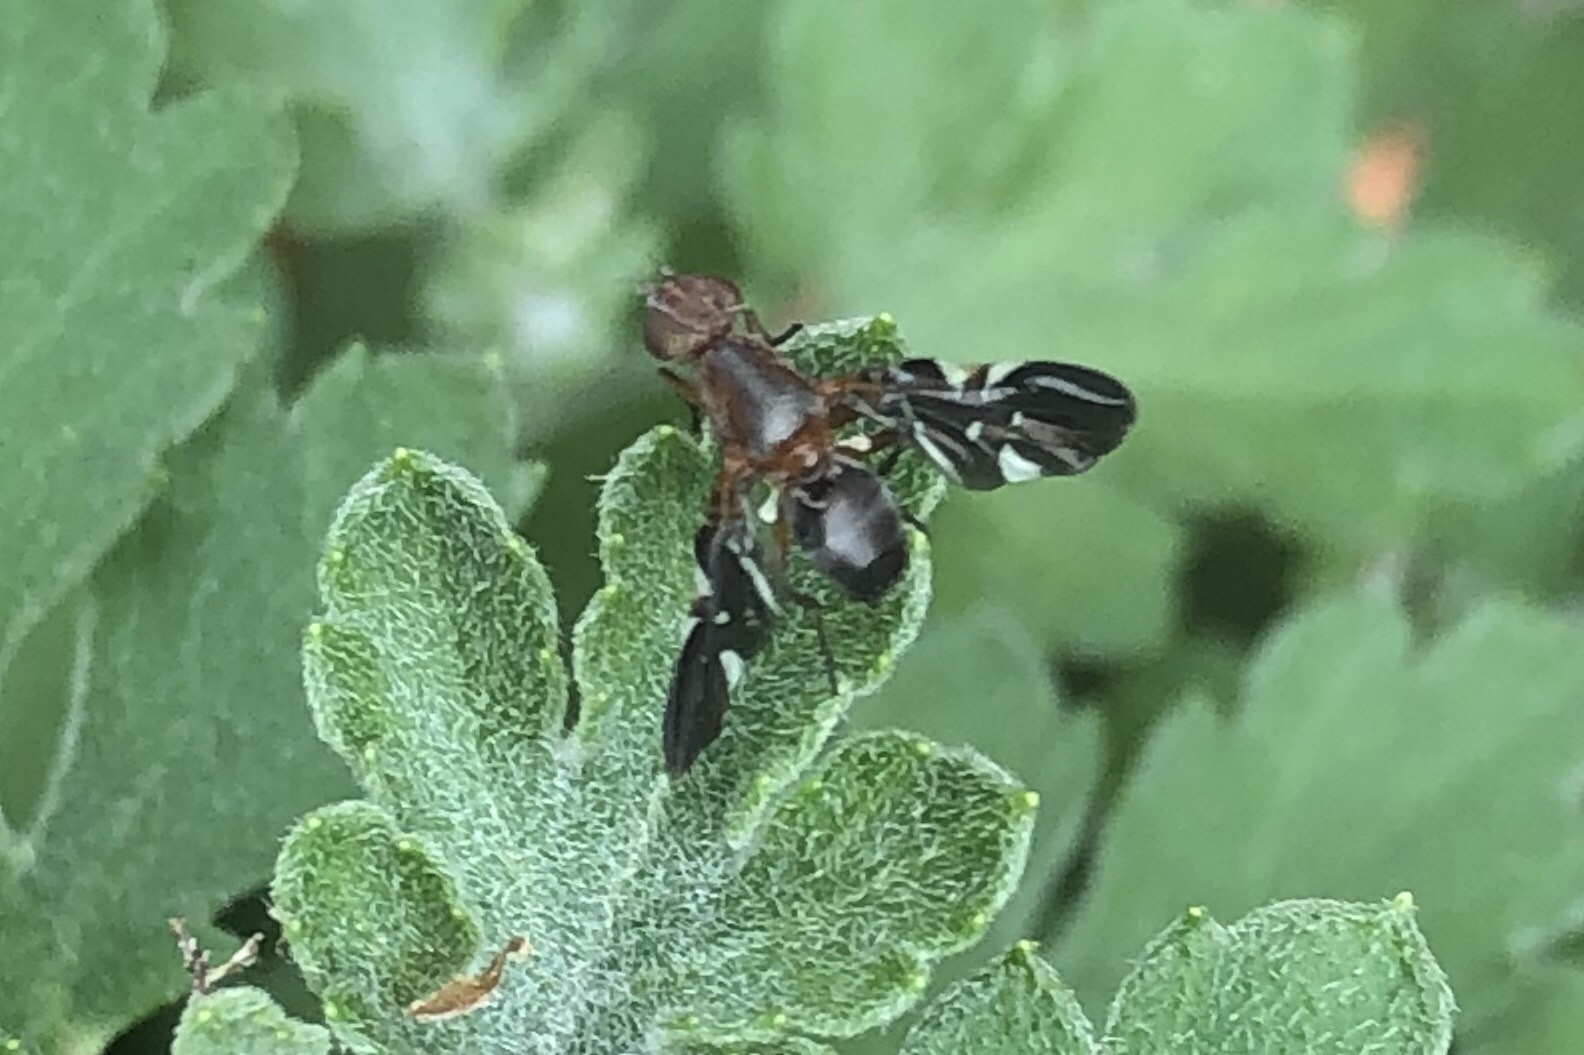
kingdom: Animalia
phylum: Arthropoda
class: Insecta
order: Diptera
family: Ulidiidae
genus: Delphinia
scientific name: Delphinia picta
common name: Common picture-winged fly
